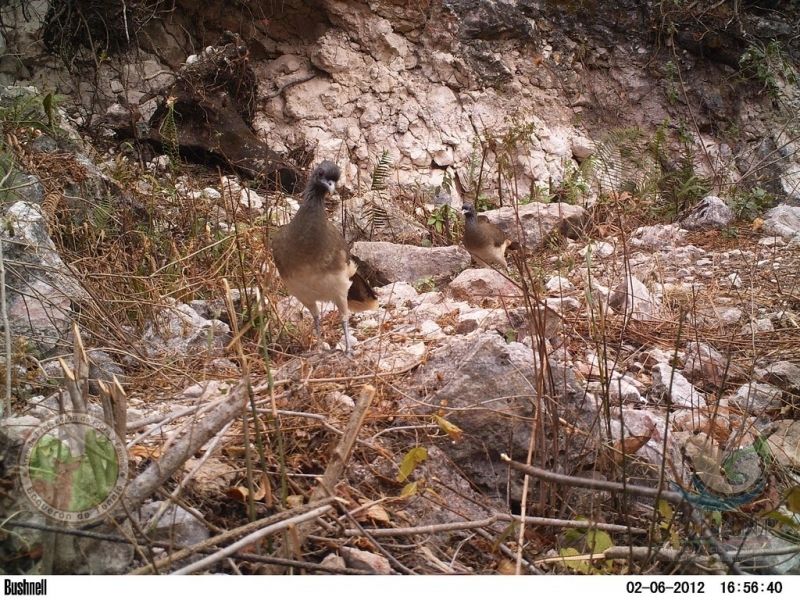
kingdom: Animalia
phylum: Chordata
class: Aves
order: Galliformes
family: Cracidae
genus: Ortalis
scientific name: Ortalis poliocephala
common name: West mexican chachalaca
